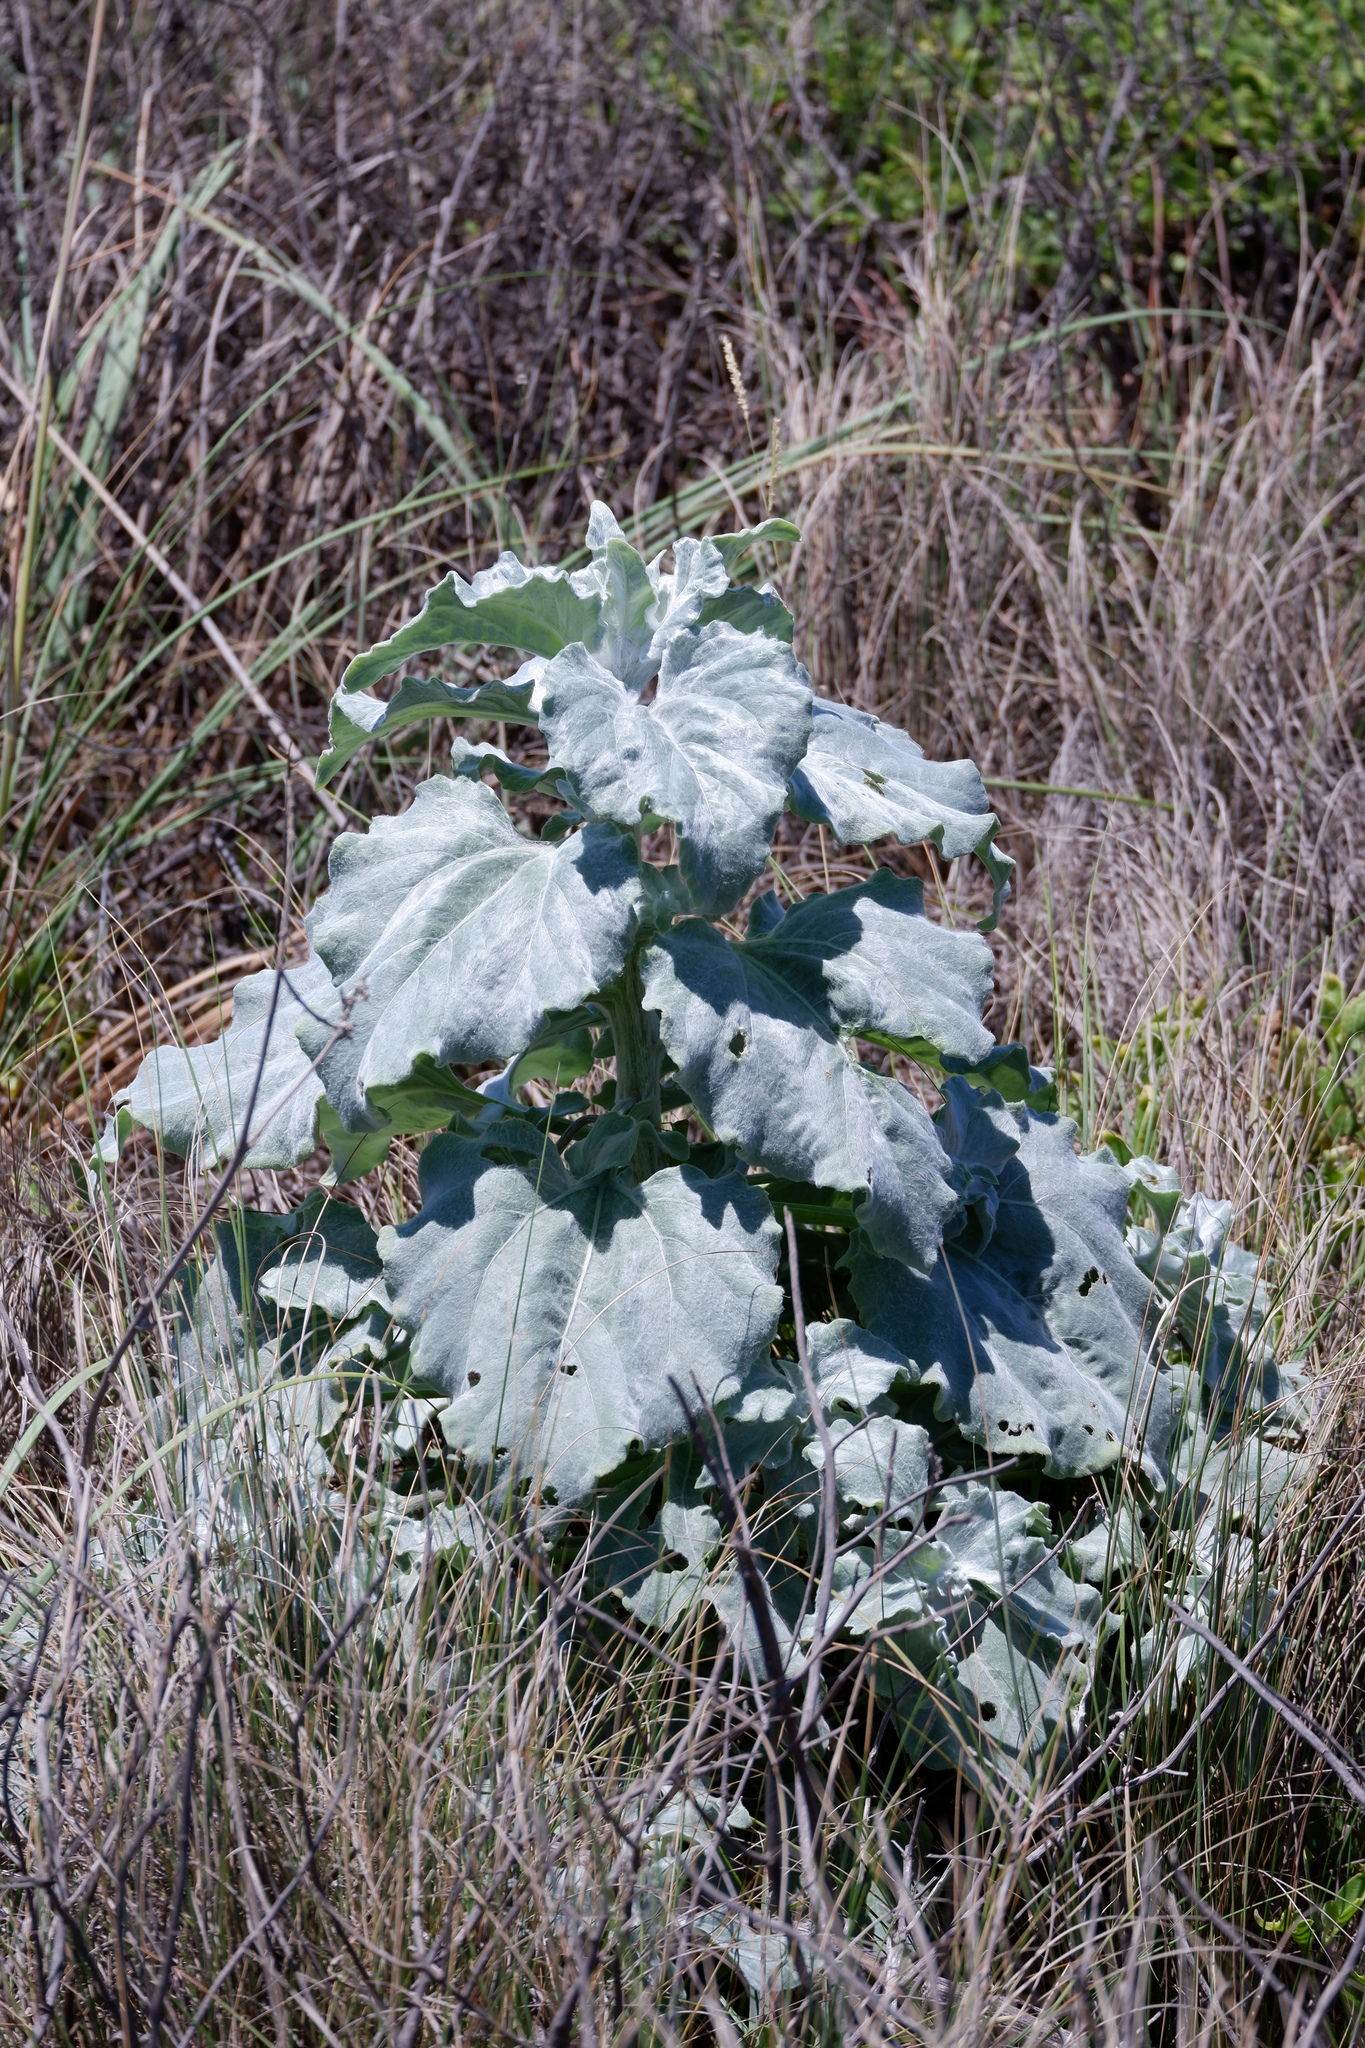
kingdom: Plantae
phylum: Tracheophyta
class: Magnoliopsida
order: Asterales
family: Asteraceae
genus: Helianthus
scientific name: Helianthus argophyllus
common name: Silverleaf sunflower
